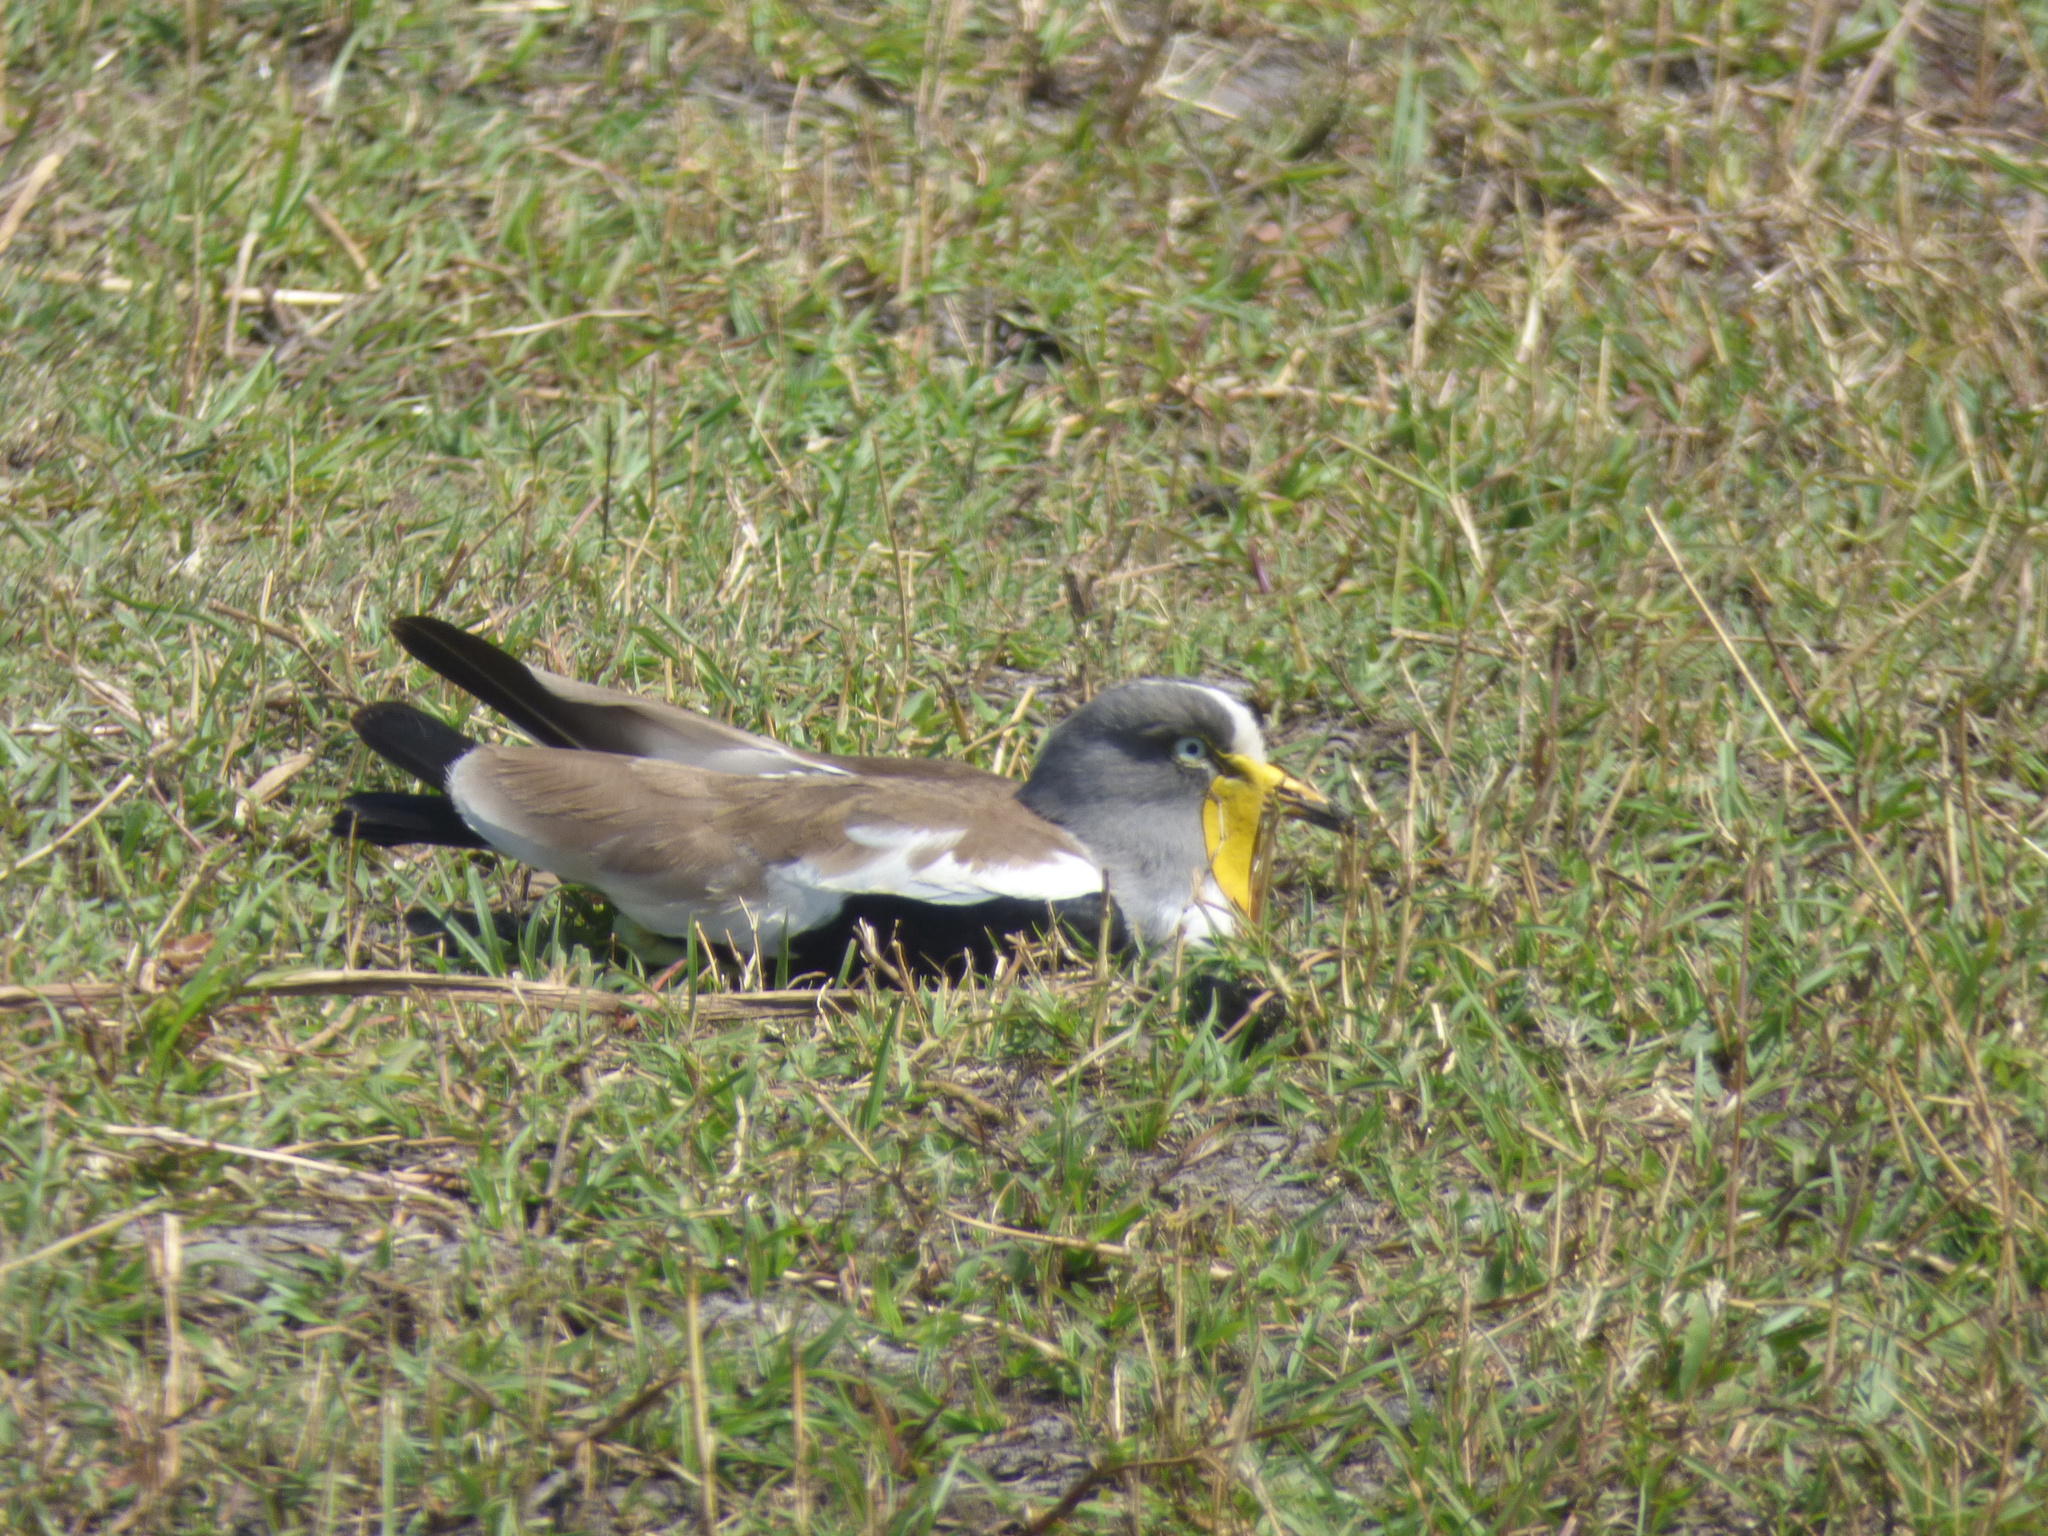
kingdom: Animalia
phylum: Chordata
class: Aves
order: Charadriiformes
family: Charadriidae
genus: Vanellus
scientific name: Vanellus albiceps
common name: White-crowned lapwing
